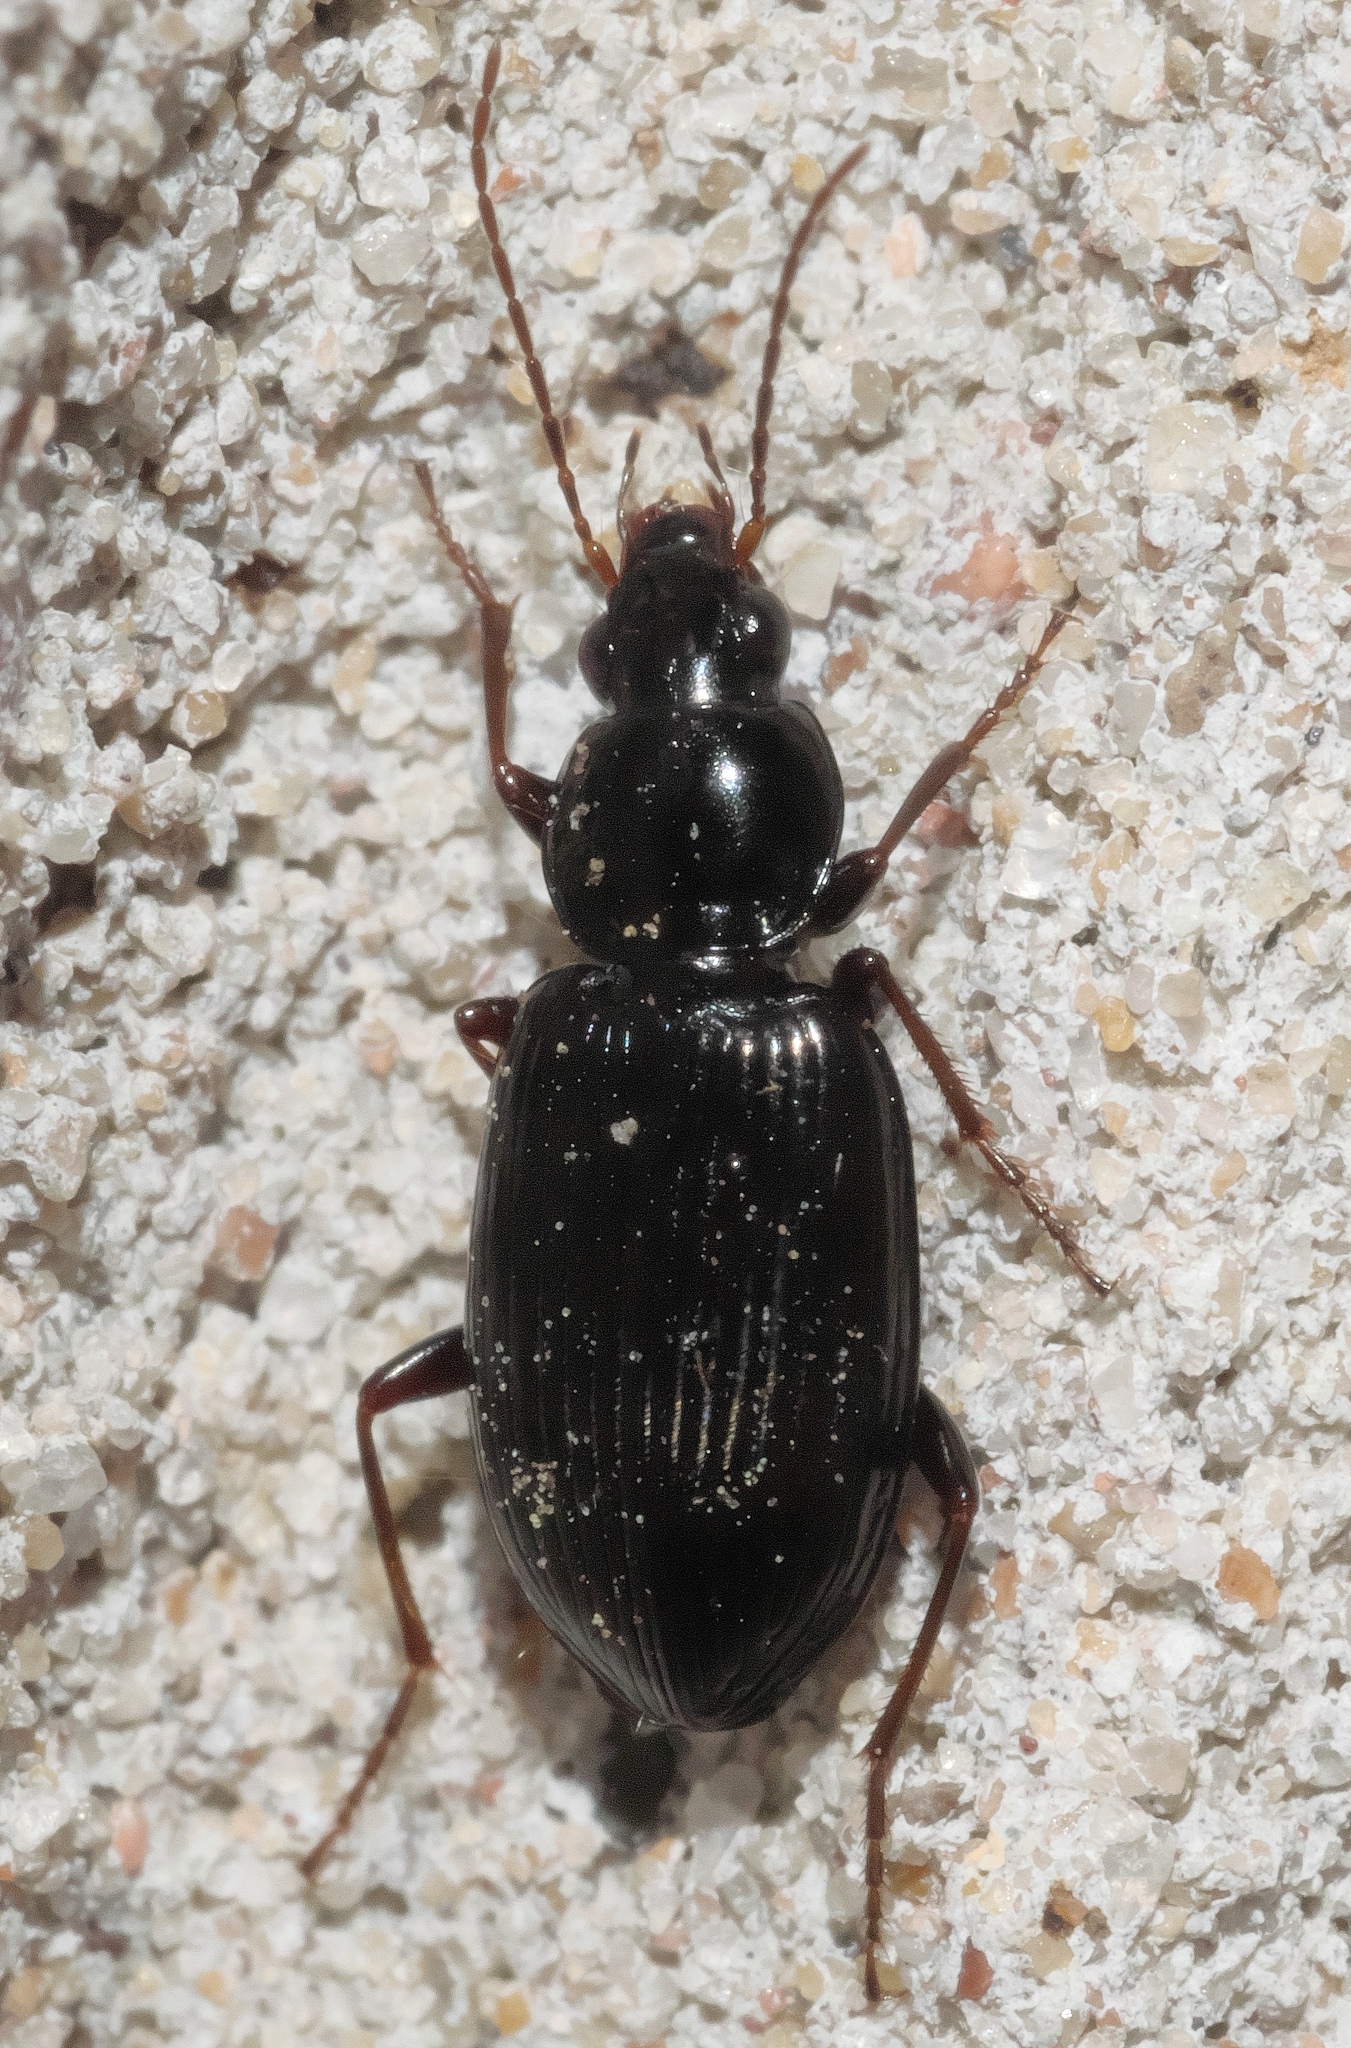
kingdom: Animalia
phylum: Arthropoda
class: Insecta
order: Coleoptera
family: Carabidae
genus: Agonum
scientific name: Agonum punctiforme
